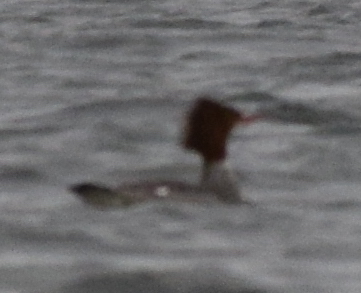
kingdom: Animalia
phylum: Chordata
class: Aves
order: Anseriformes
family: Anatidae
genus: Mergus
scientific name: Mergus merganser
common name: Common merganser
